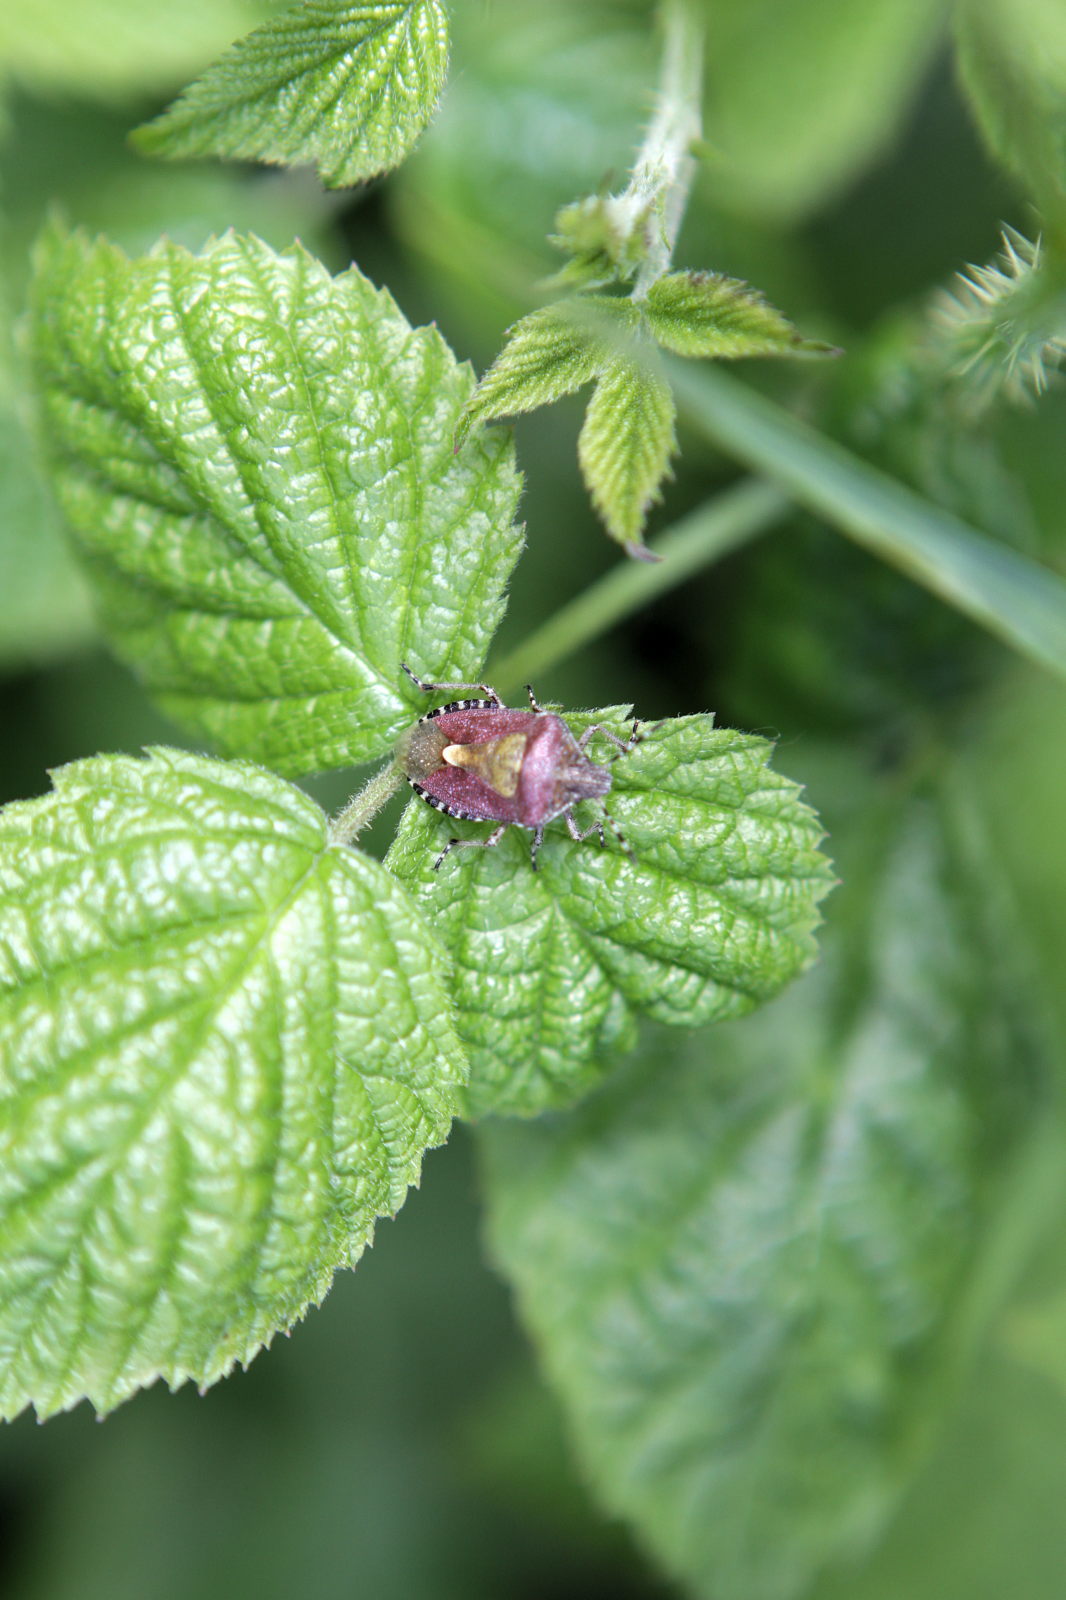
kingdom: Animalia
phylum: Arthropoda
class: Insecta
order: Hemiptera
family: Pentatomidae
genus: Dolycoris
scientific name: Dolycoris baccarum
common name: Sloe bug
